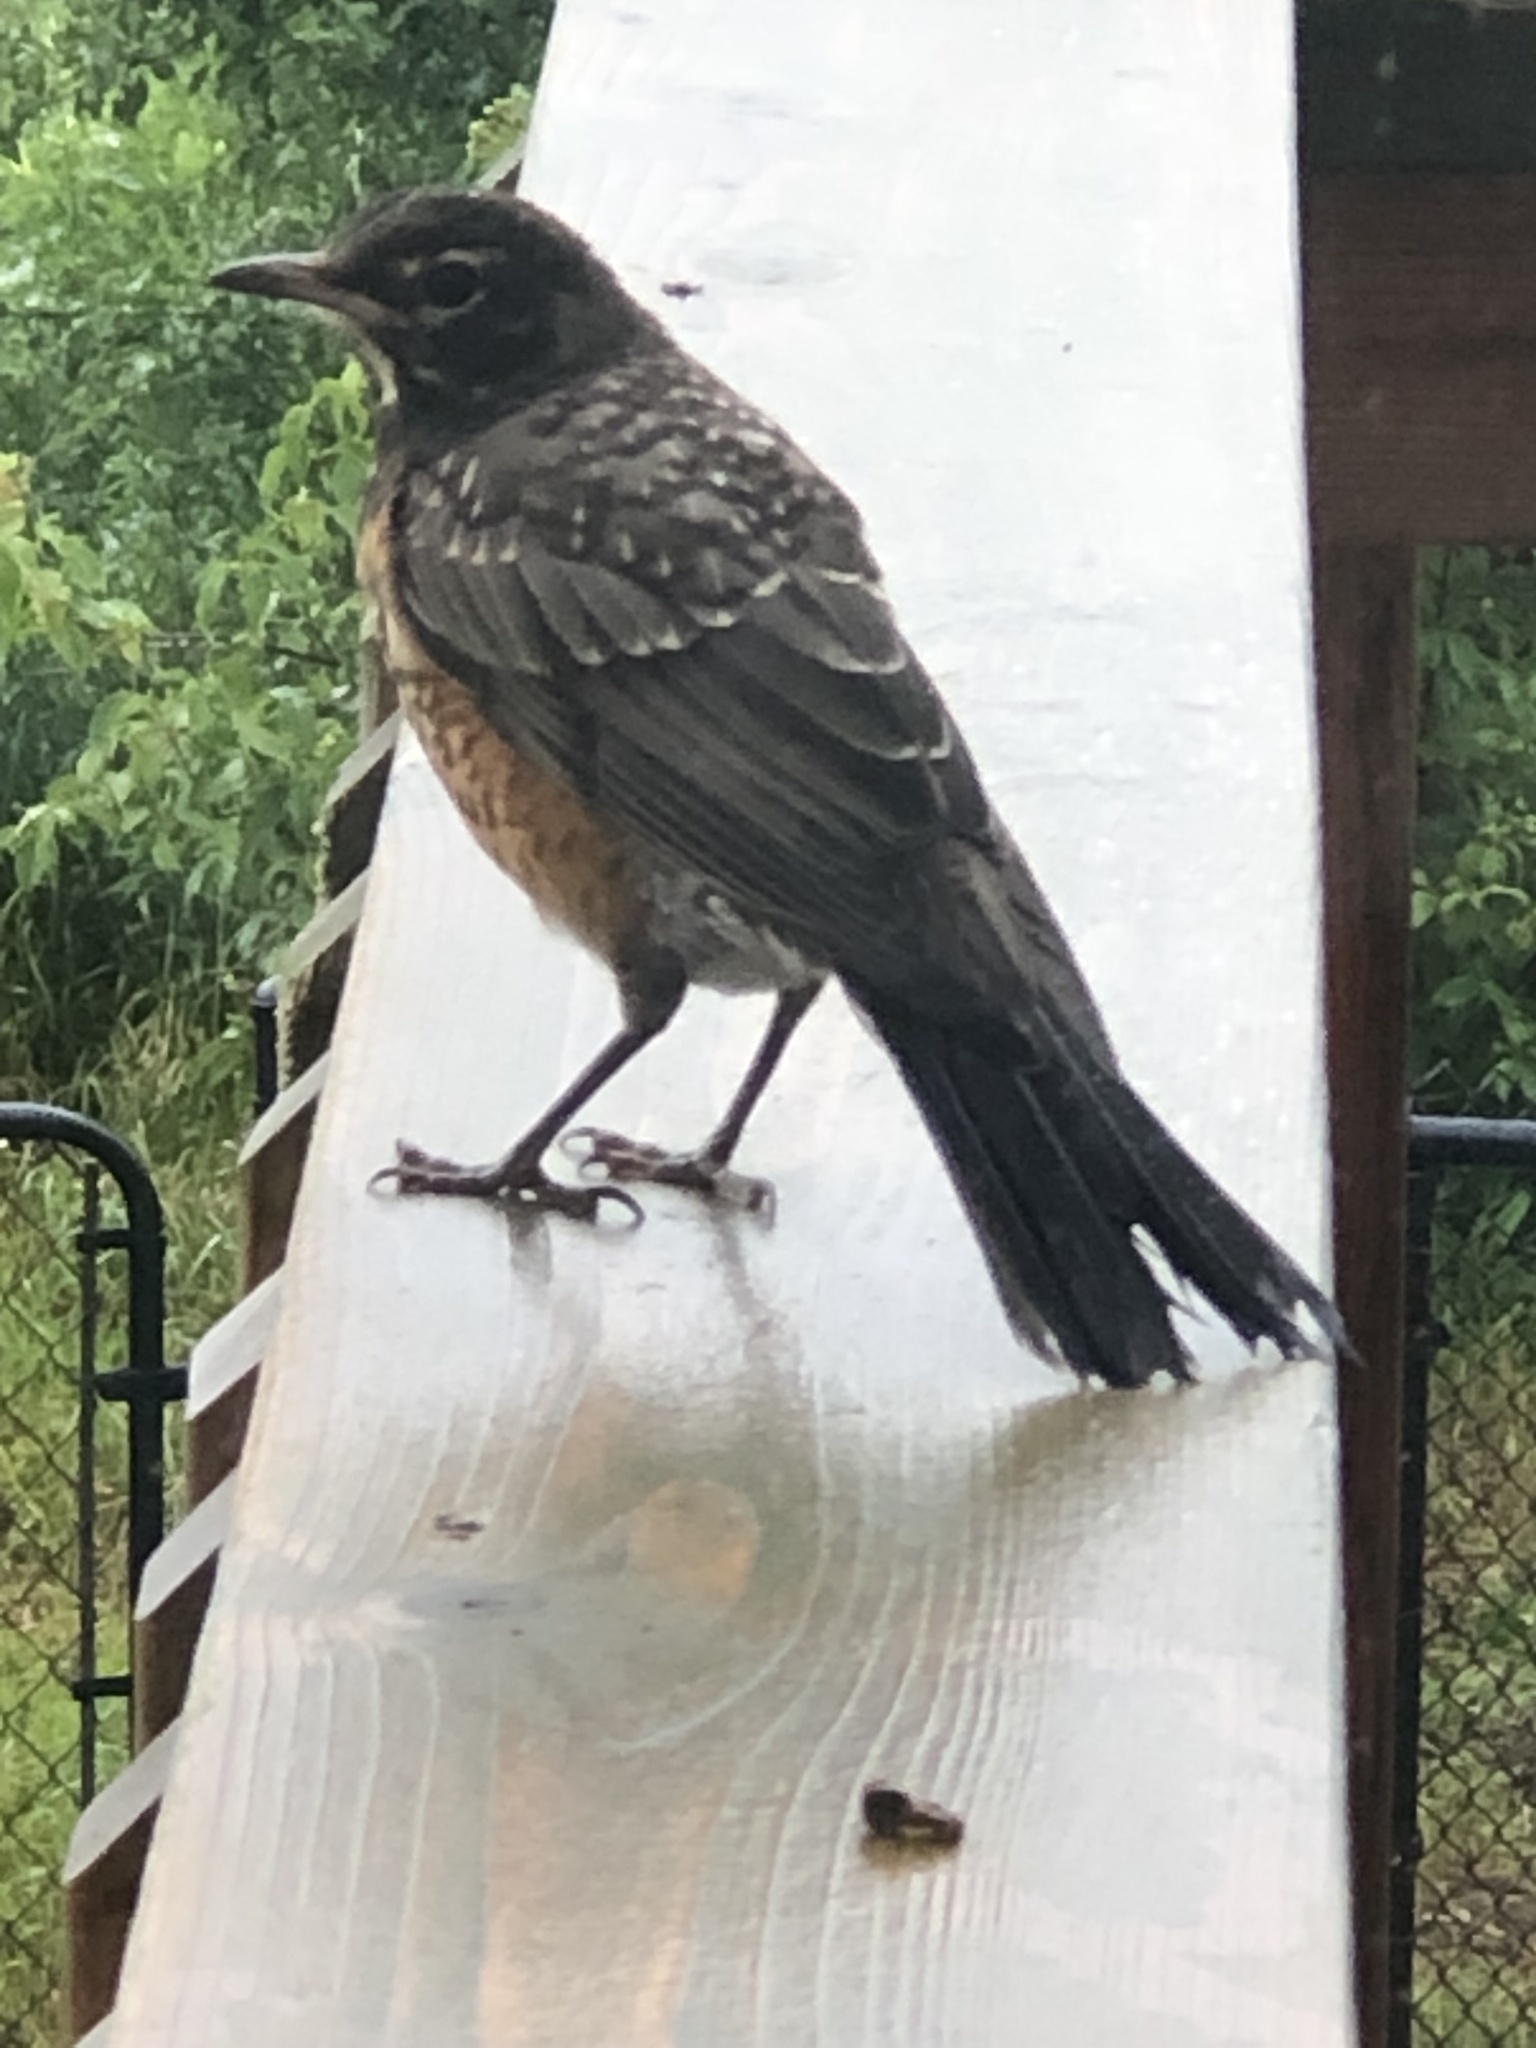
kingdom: Animalia
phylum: Chordata
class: Aves
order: Passeriformes
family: Turdidae
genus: Turdus
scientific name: Turdus migratorius
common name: American robin
